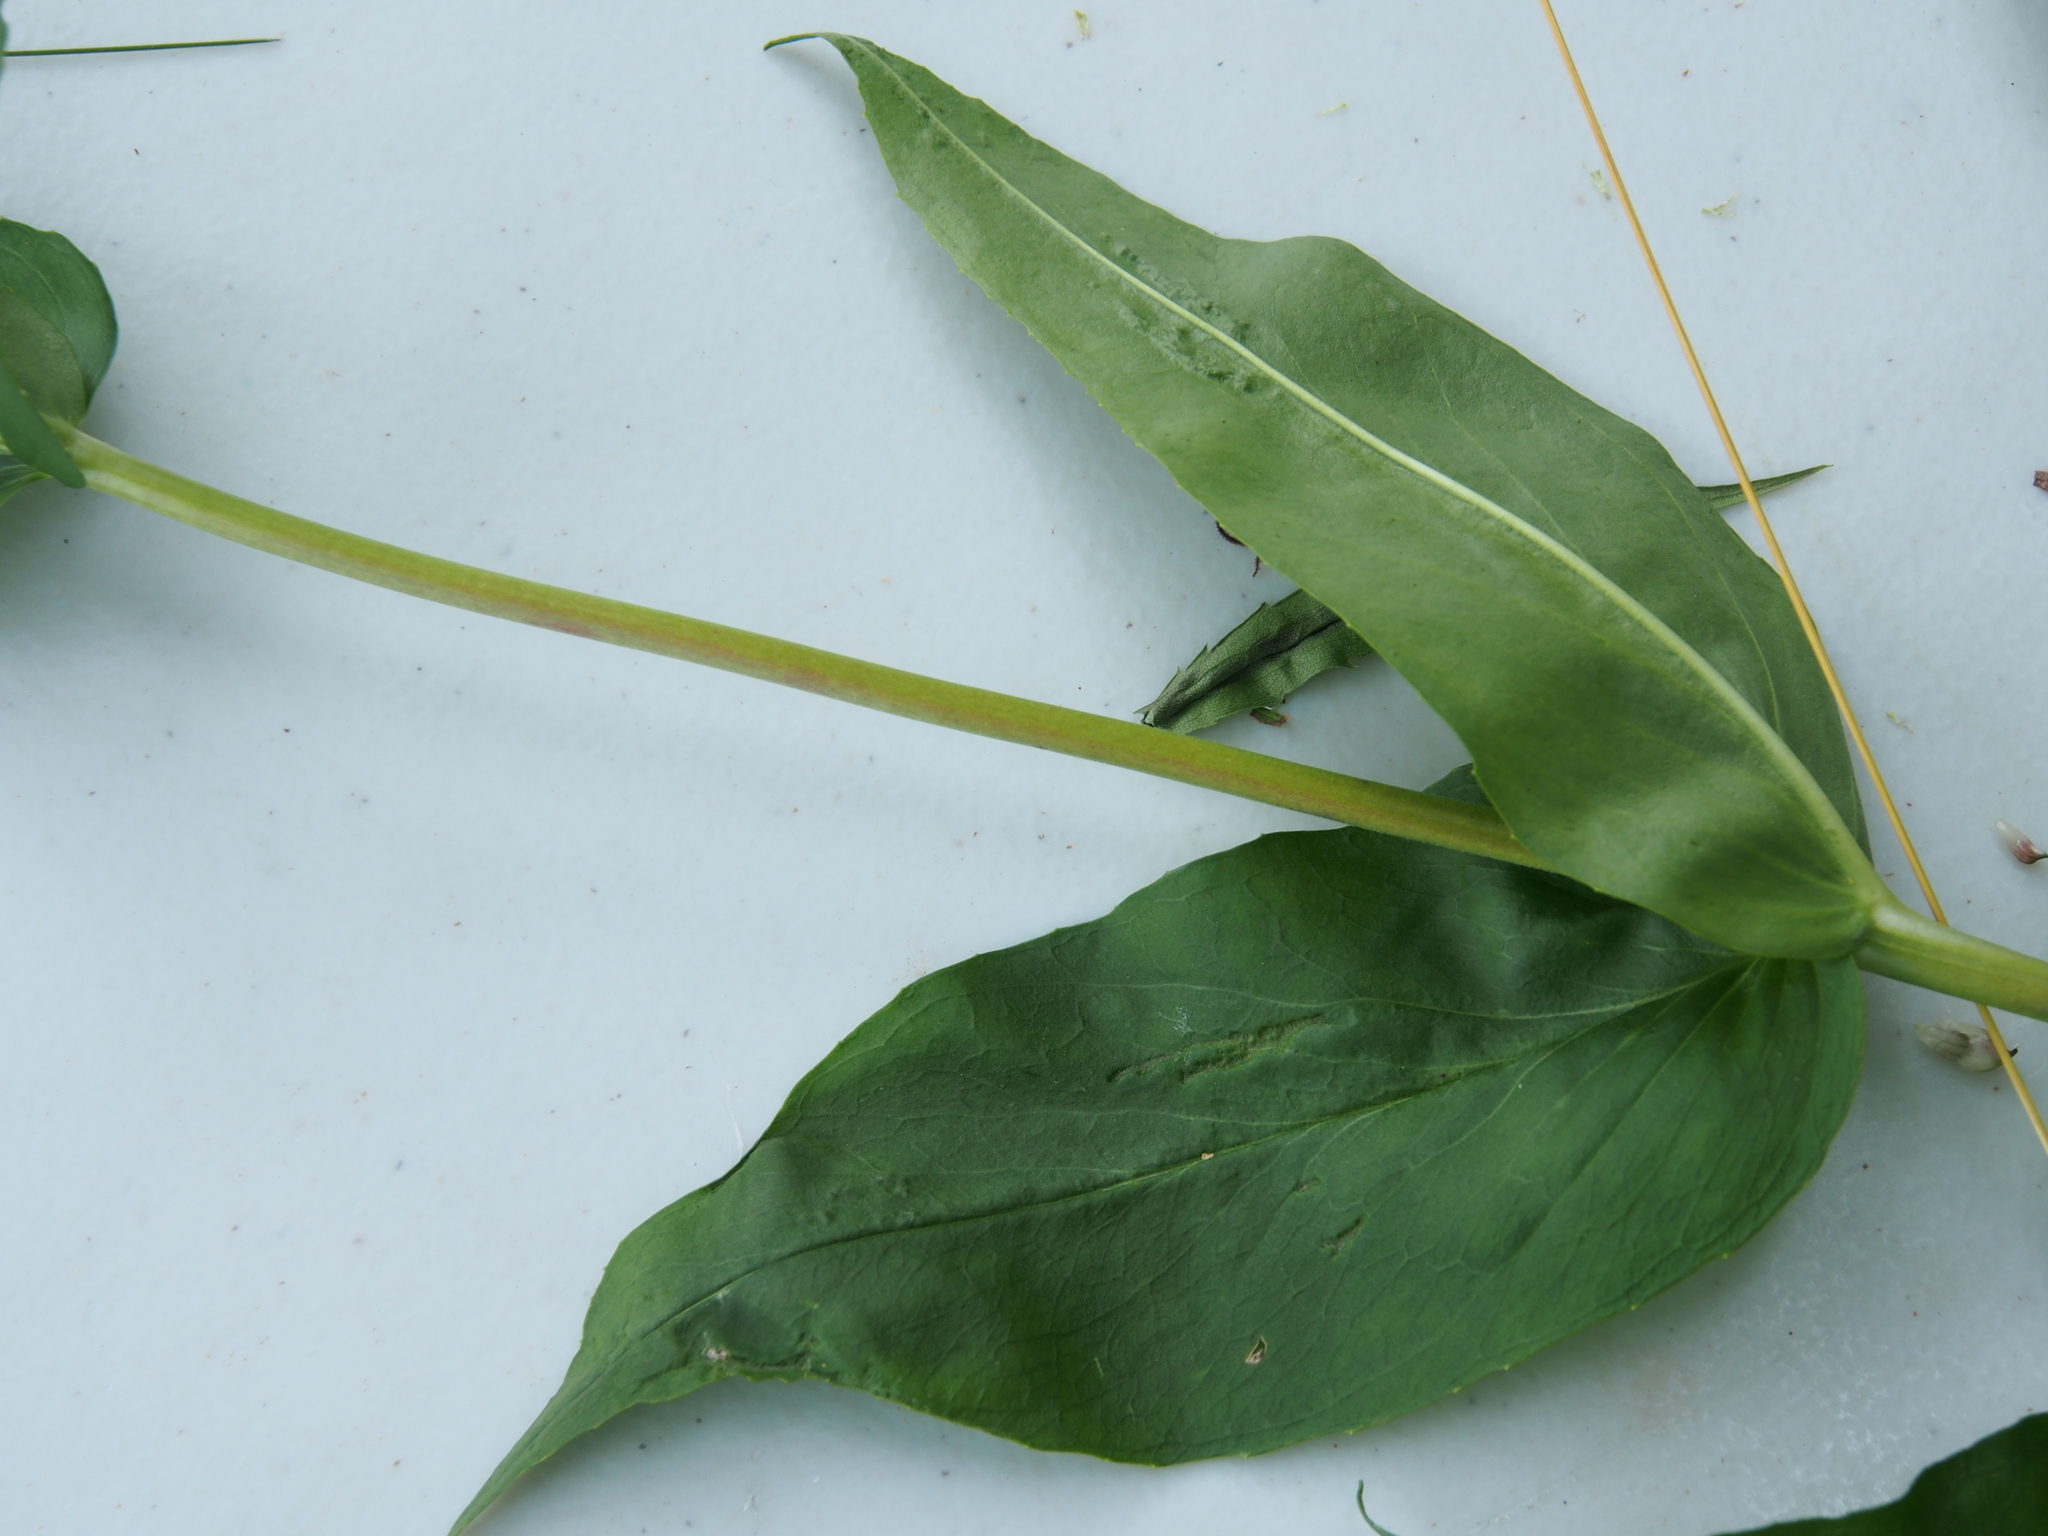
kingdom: Plantae
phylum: Tracheophyta
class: Magnoliopsida
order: Lamiales
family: Plantaginaceae
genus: Penstemon
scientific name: Penstemon digitalis
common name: Foxglove beardtongue
